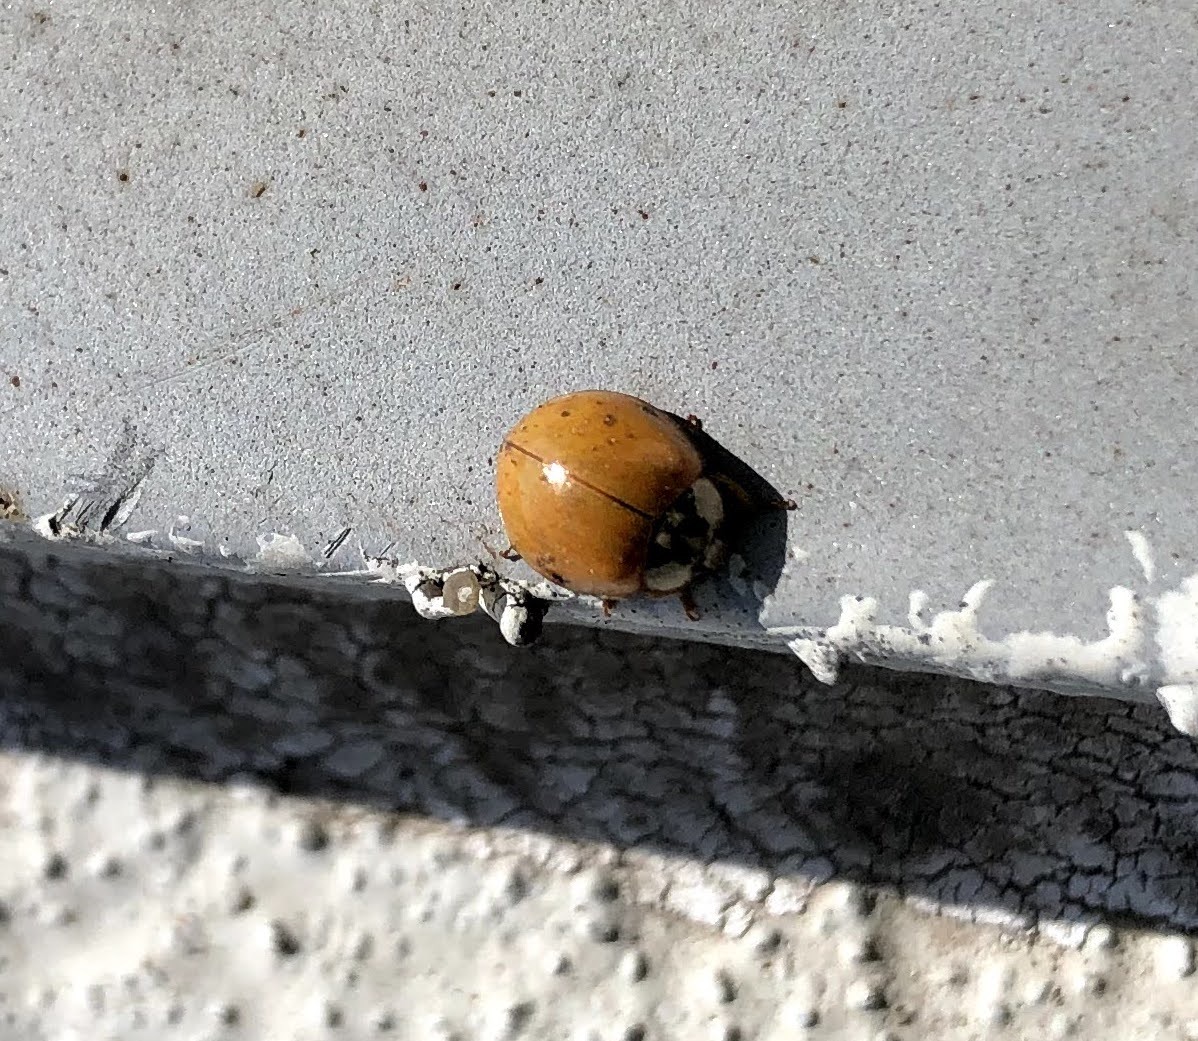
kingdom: Animalia
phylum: Arthropoda
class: Insecta
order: Coleoptera
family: Coccinellidae
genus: Harmonia
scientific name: Harmonia axyridis
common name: Harlequin ladybird
